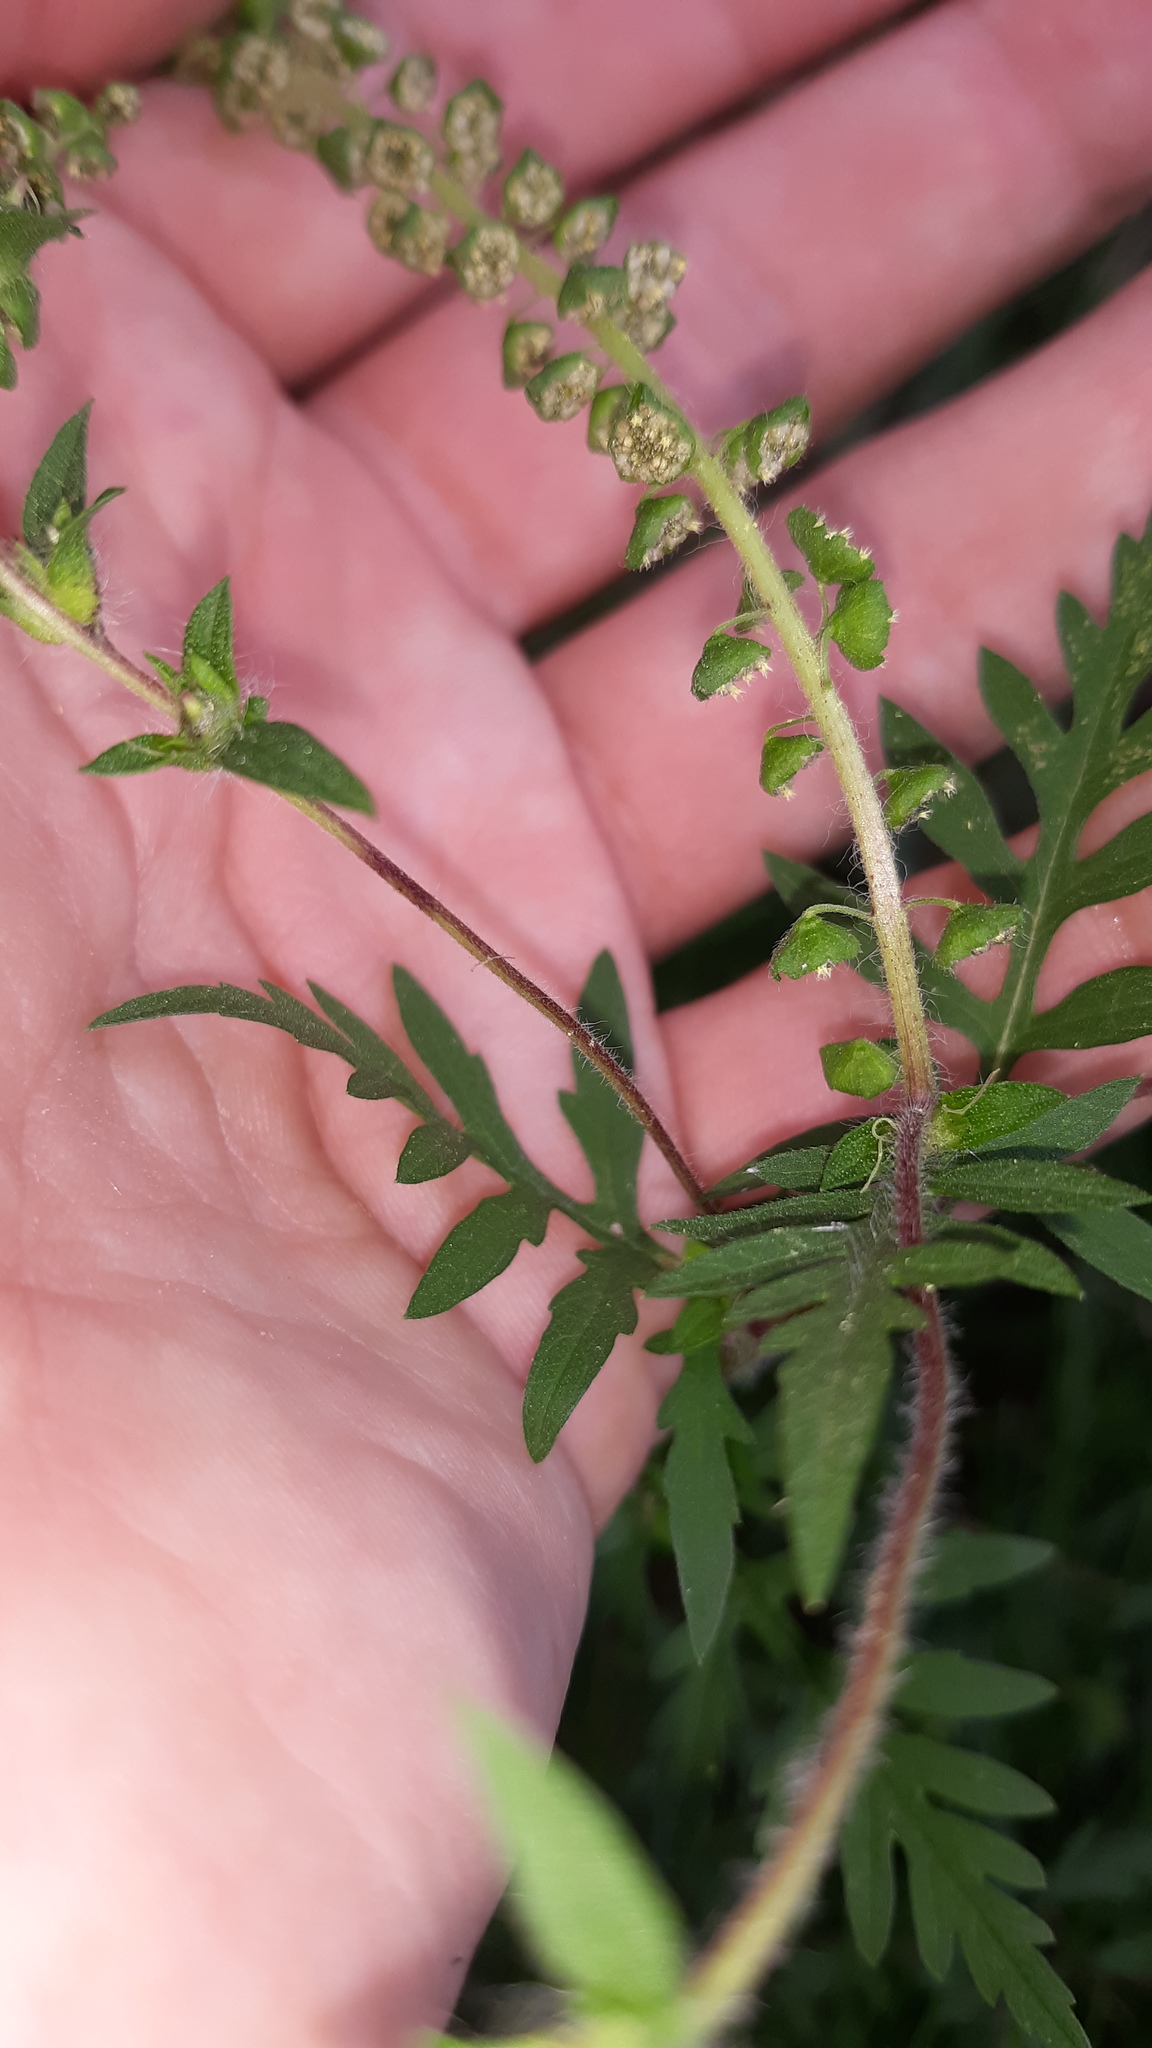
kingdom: Plantae
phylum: Tracheophyta
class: Magnoliopsida
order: Asterales
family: Asteraceae
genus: Ambrosia
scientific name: Ambrosia artemisiifolia
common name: Annual ragweed
